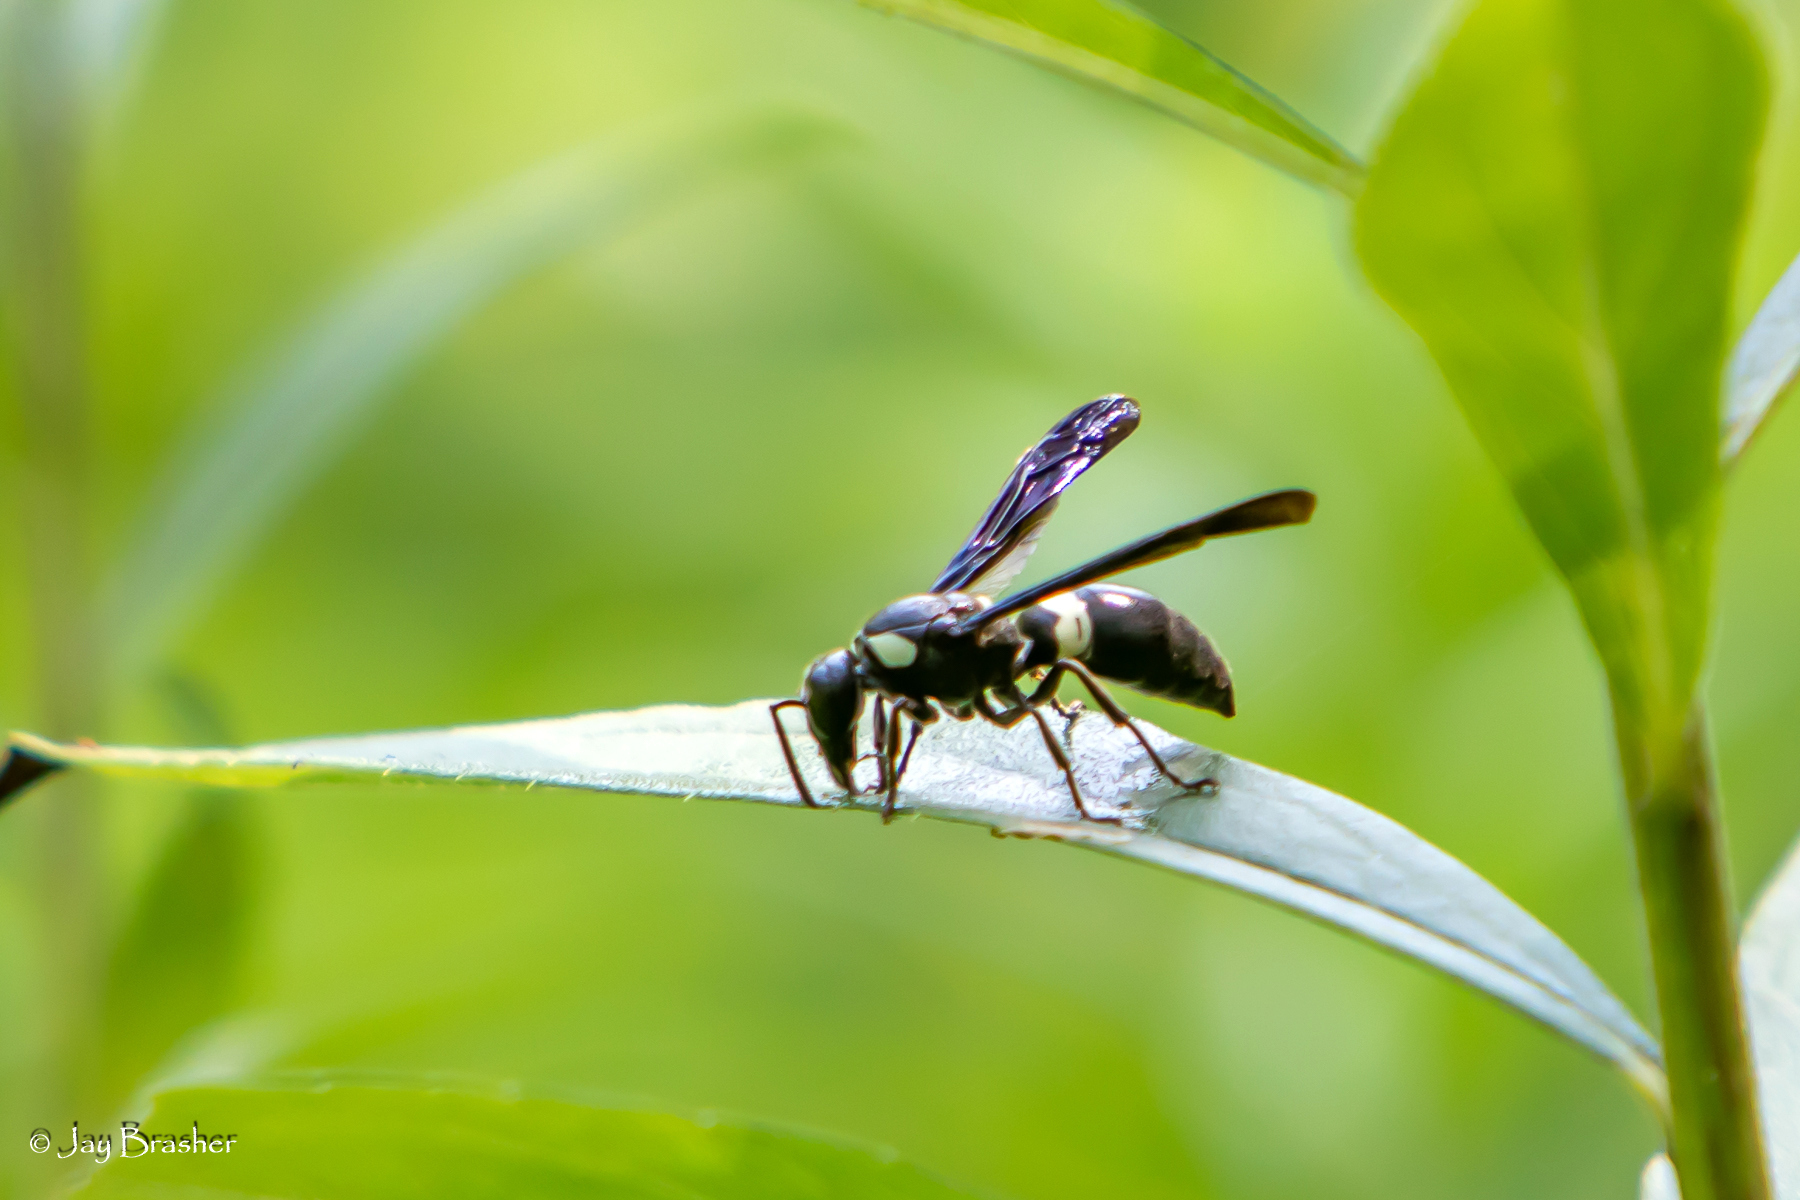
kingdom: Animalia
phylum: Arthropoda
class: Insecta
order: Hymenoptera
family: Eumenidae
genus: Monobia
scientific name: Monobia quadridens
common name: Four-toothed mason wasp
